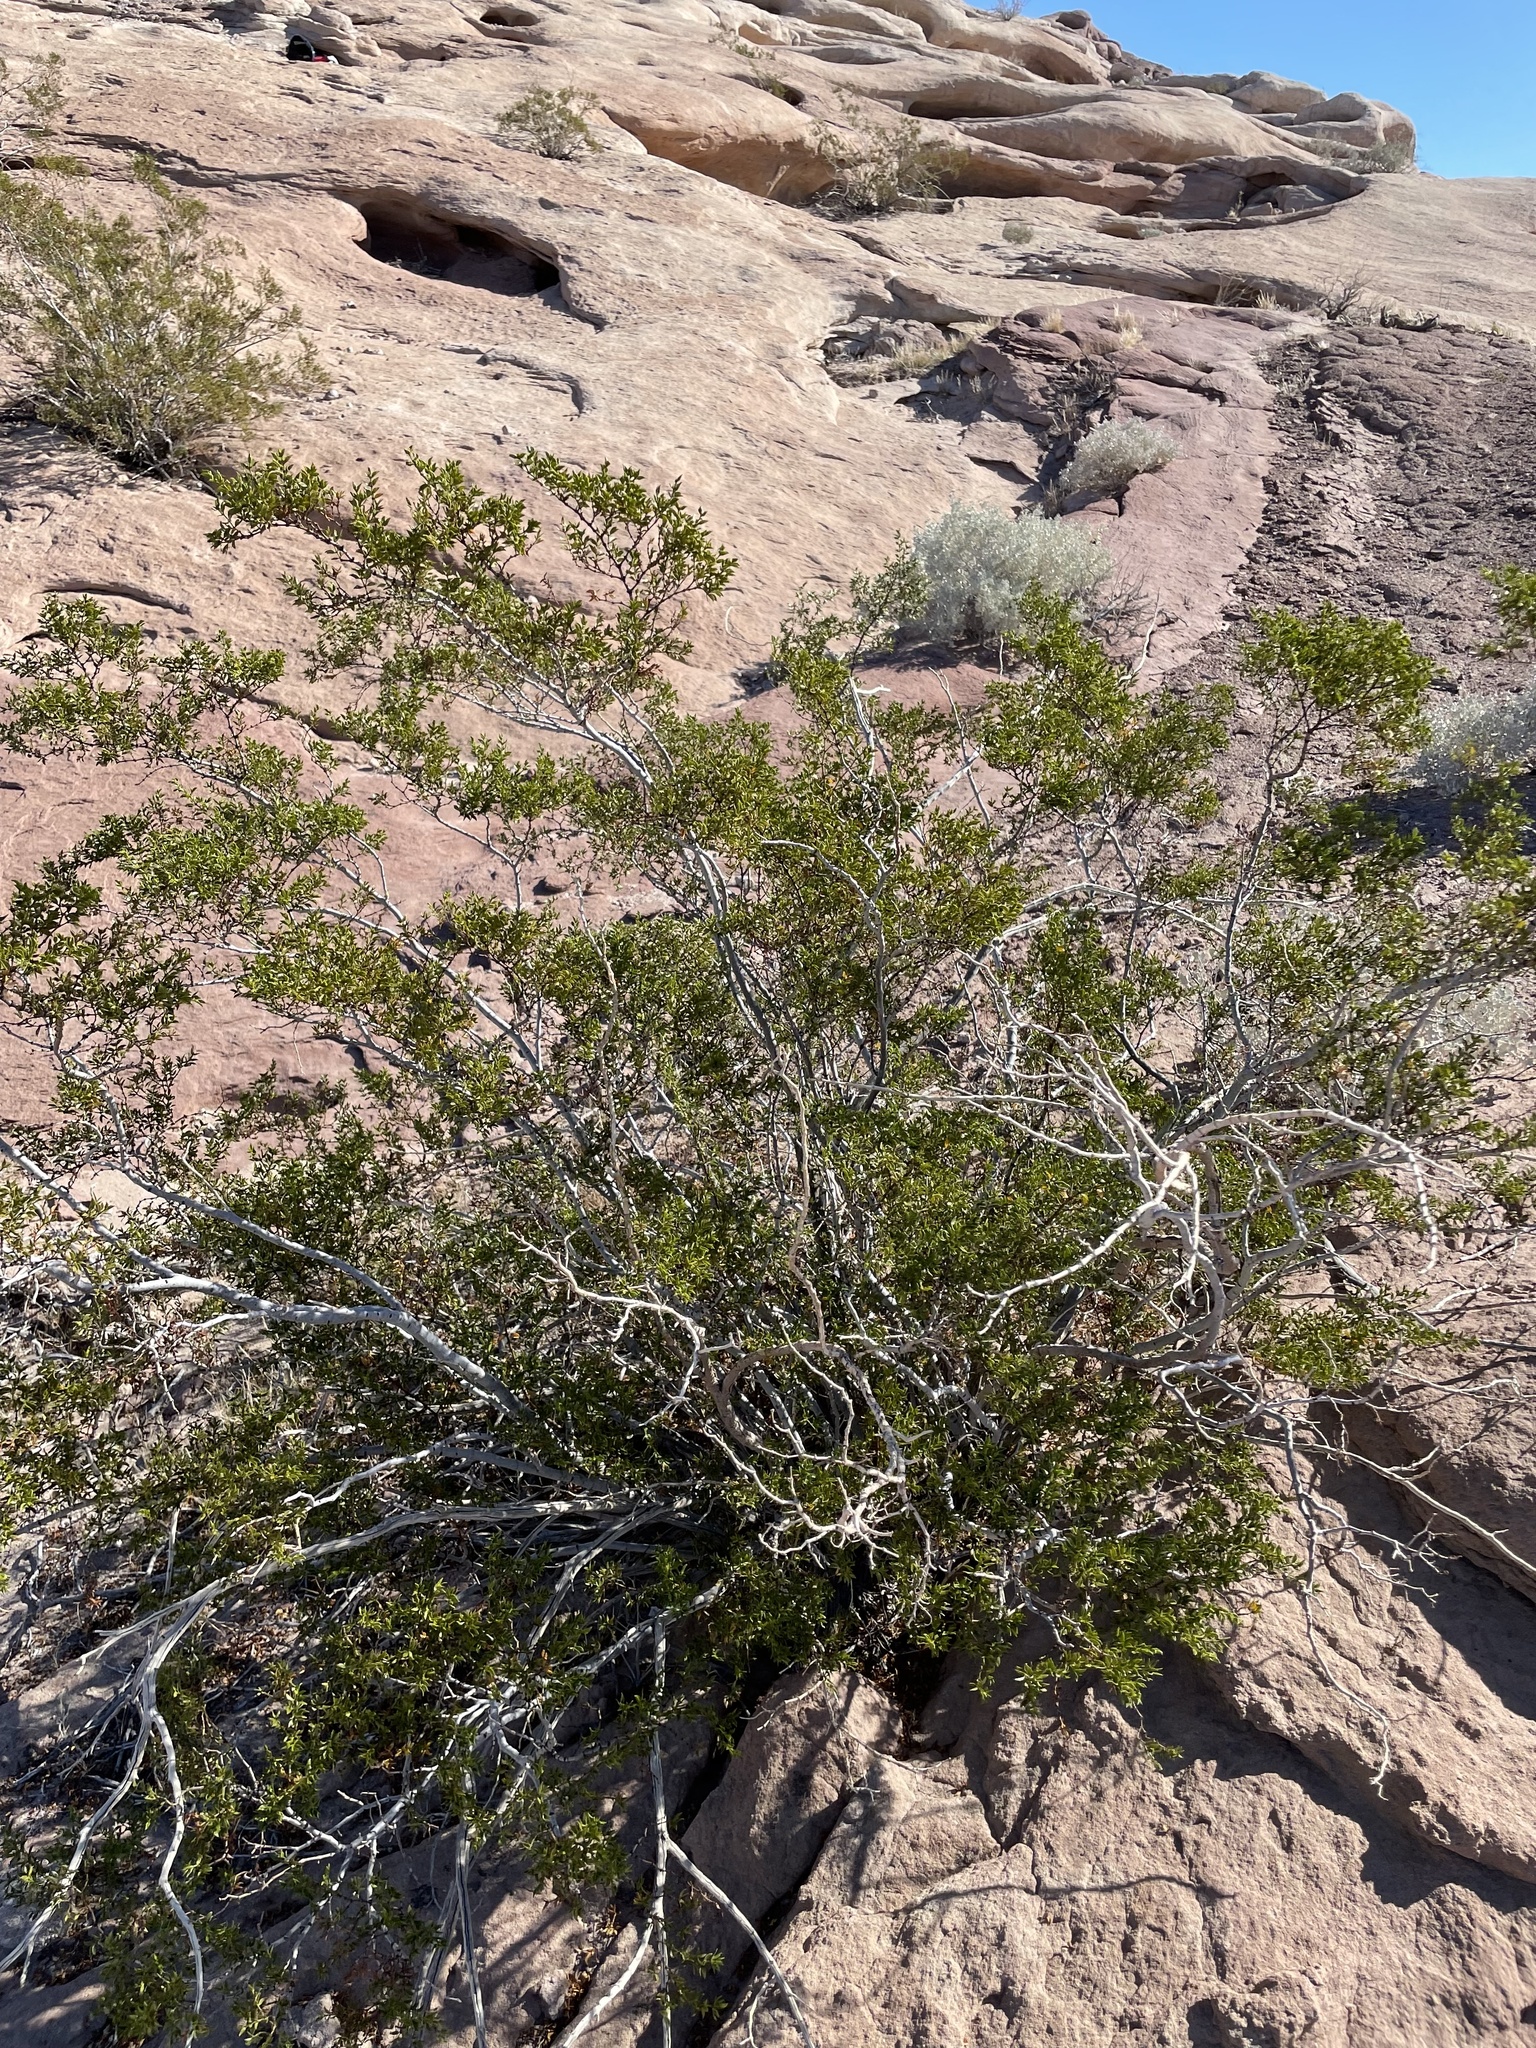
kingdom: Plantae
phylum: Tracheophyta
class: Magnoliopsida
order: Zygophyllales
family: Zygophyllaceae
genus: Larrea
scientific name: Larrea tridentata
